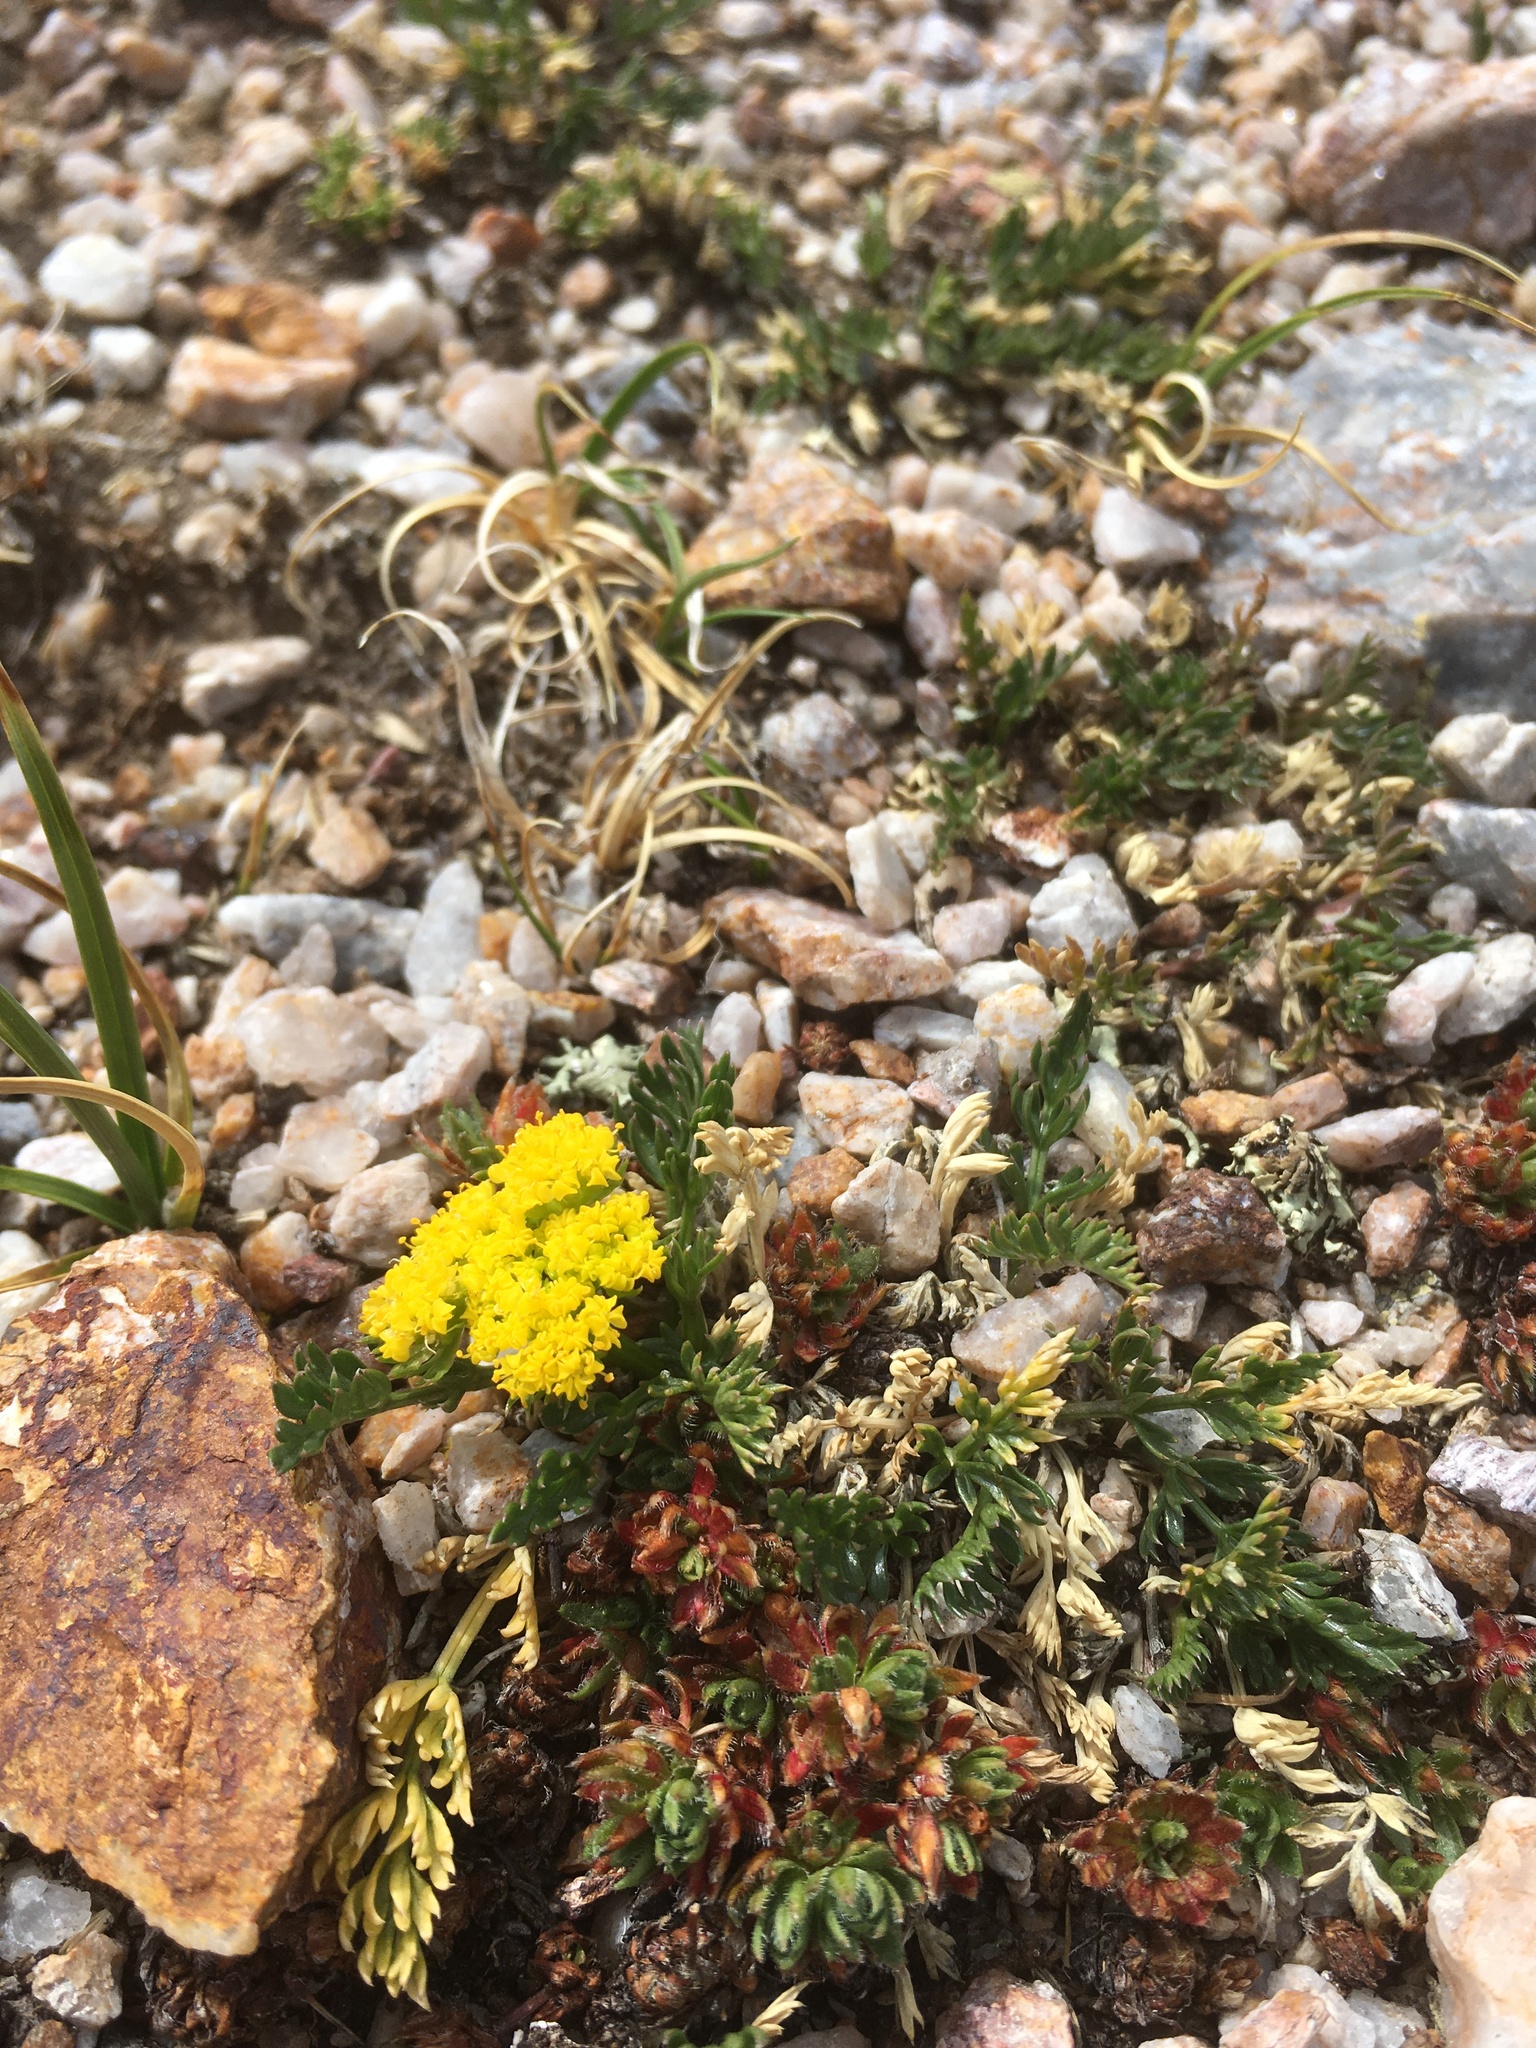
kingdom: Plantae
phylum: Tracheophyta
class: Magnoliopsida
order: Apiales
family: Apiaceae
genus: Oreoxis
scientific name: Oreoxis bakeri
